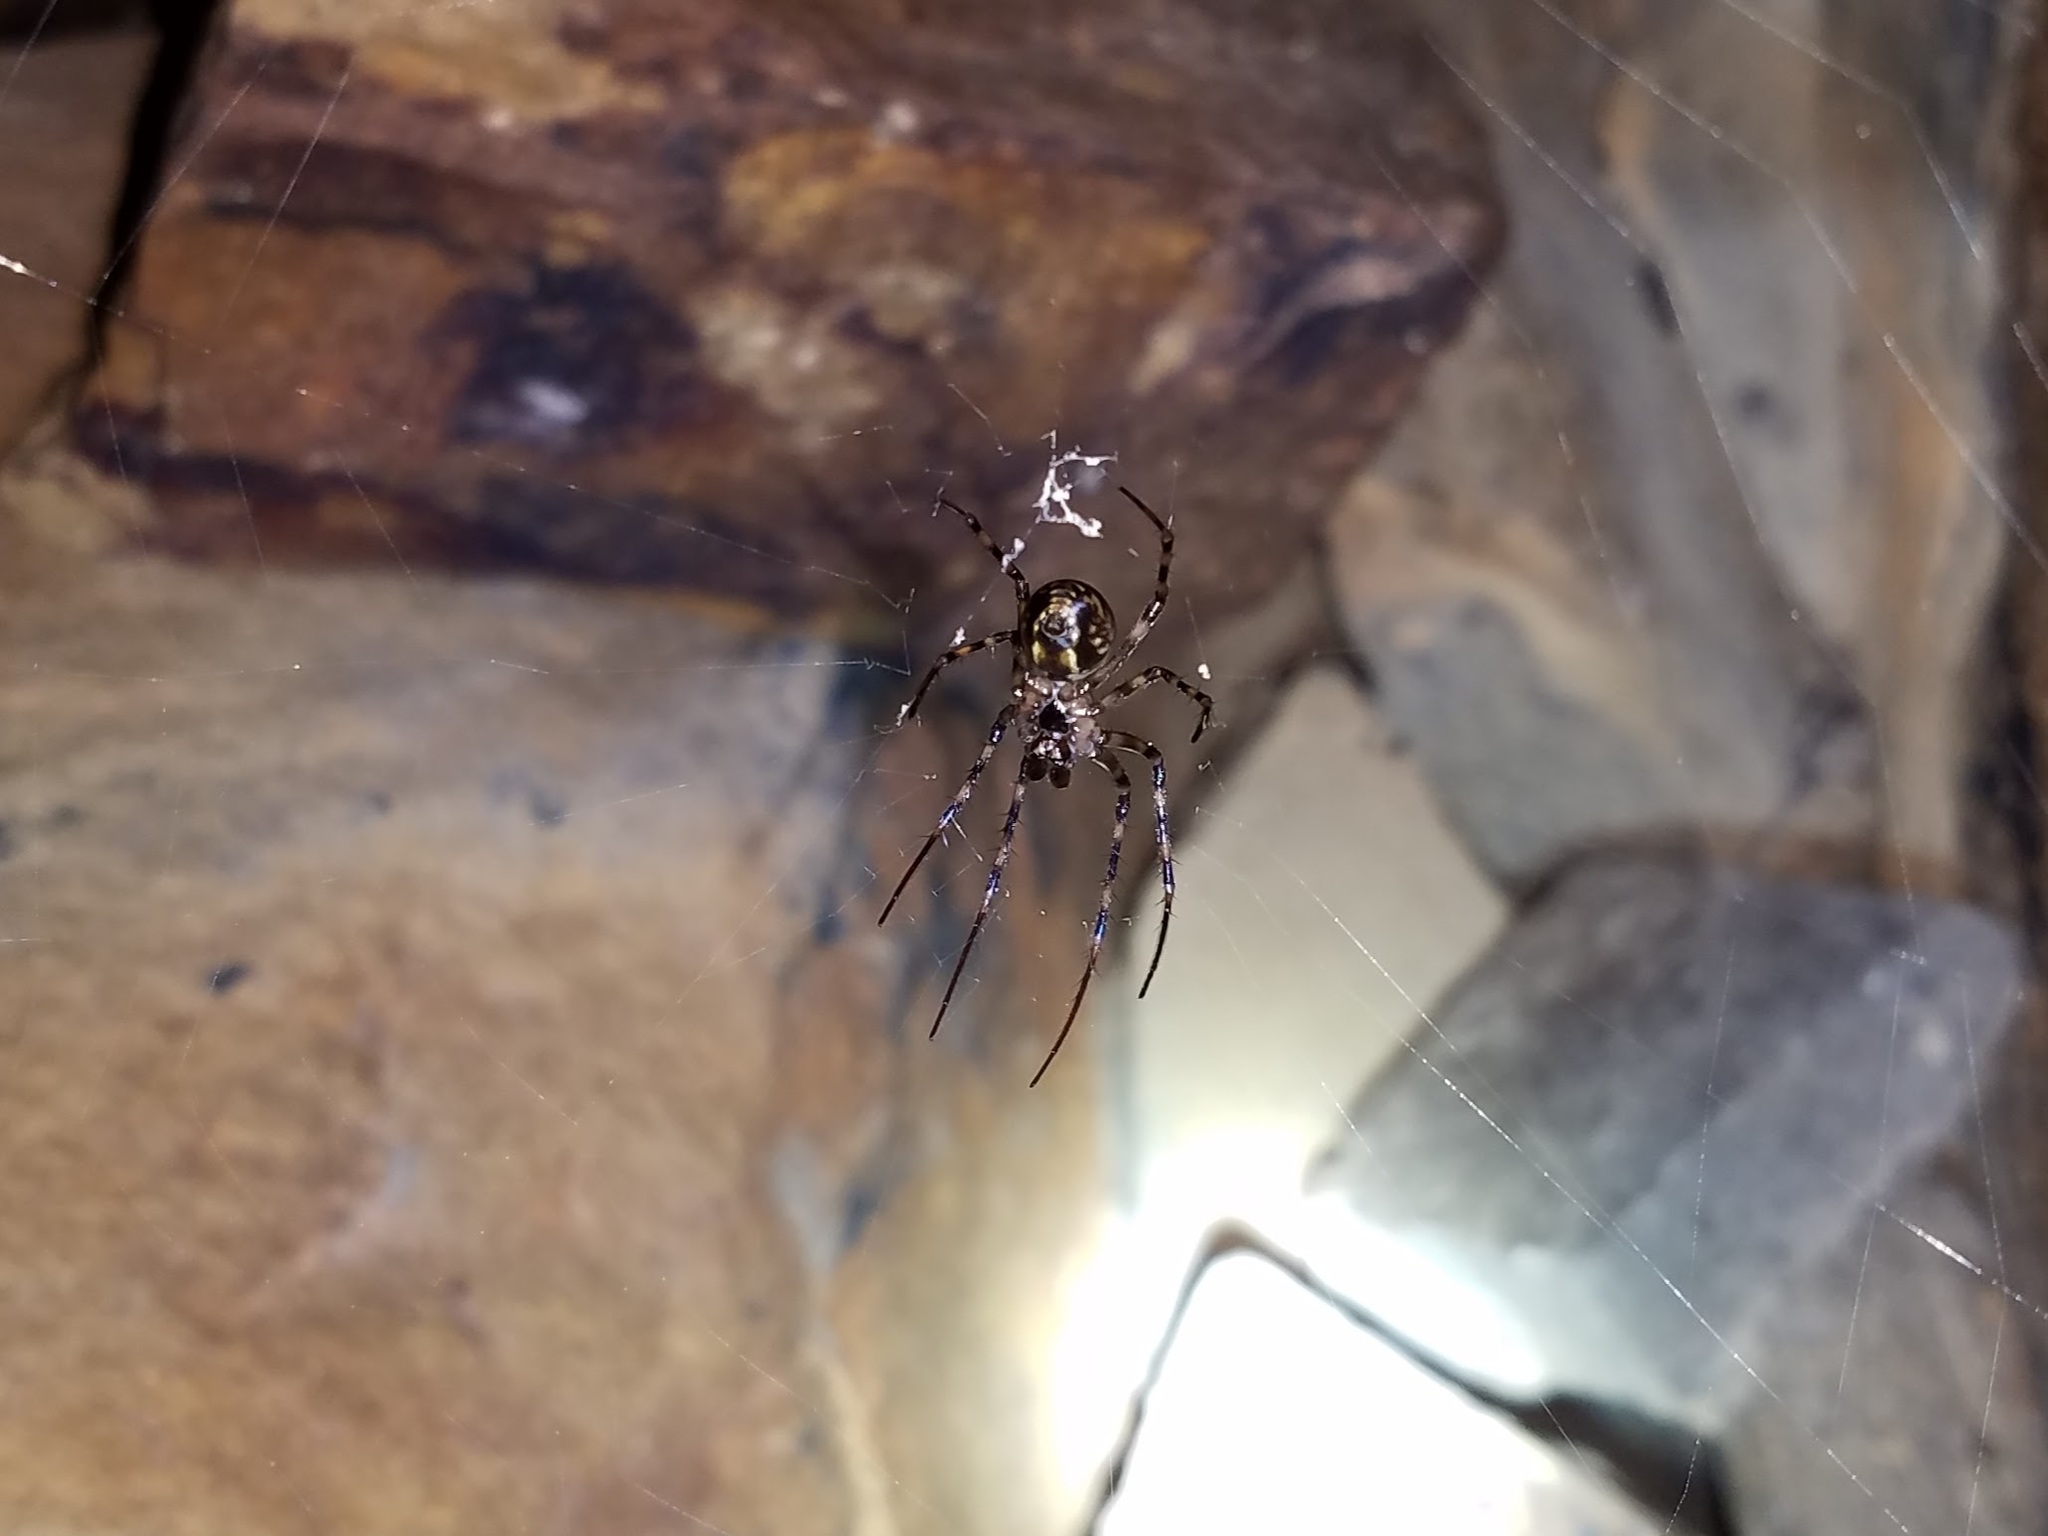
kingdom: Animalia
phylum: Arthropoda
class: Arachnida
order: Araneae
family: Tetragnathidae
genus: Meta
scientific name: Meta ovalis
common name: Eastern cave long-jawed spider
